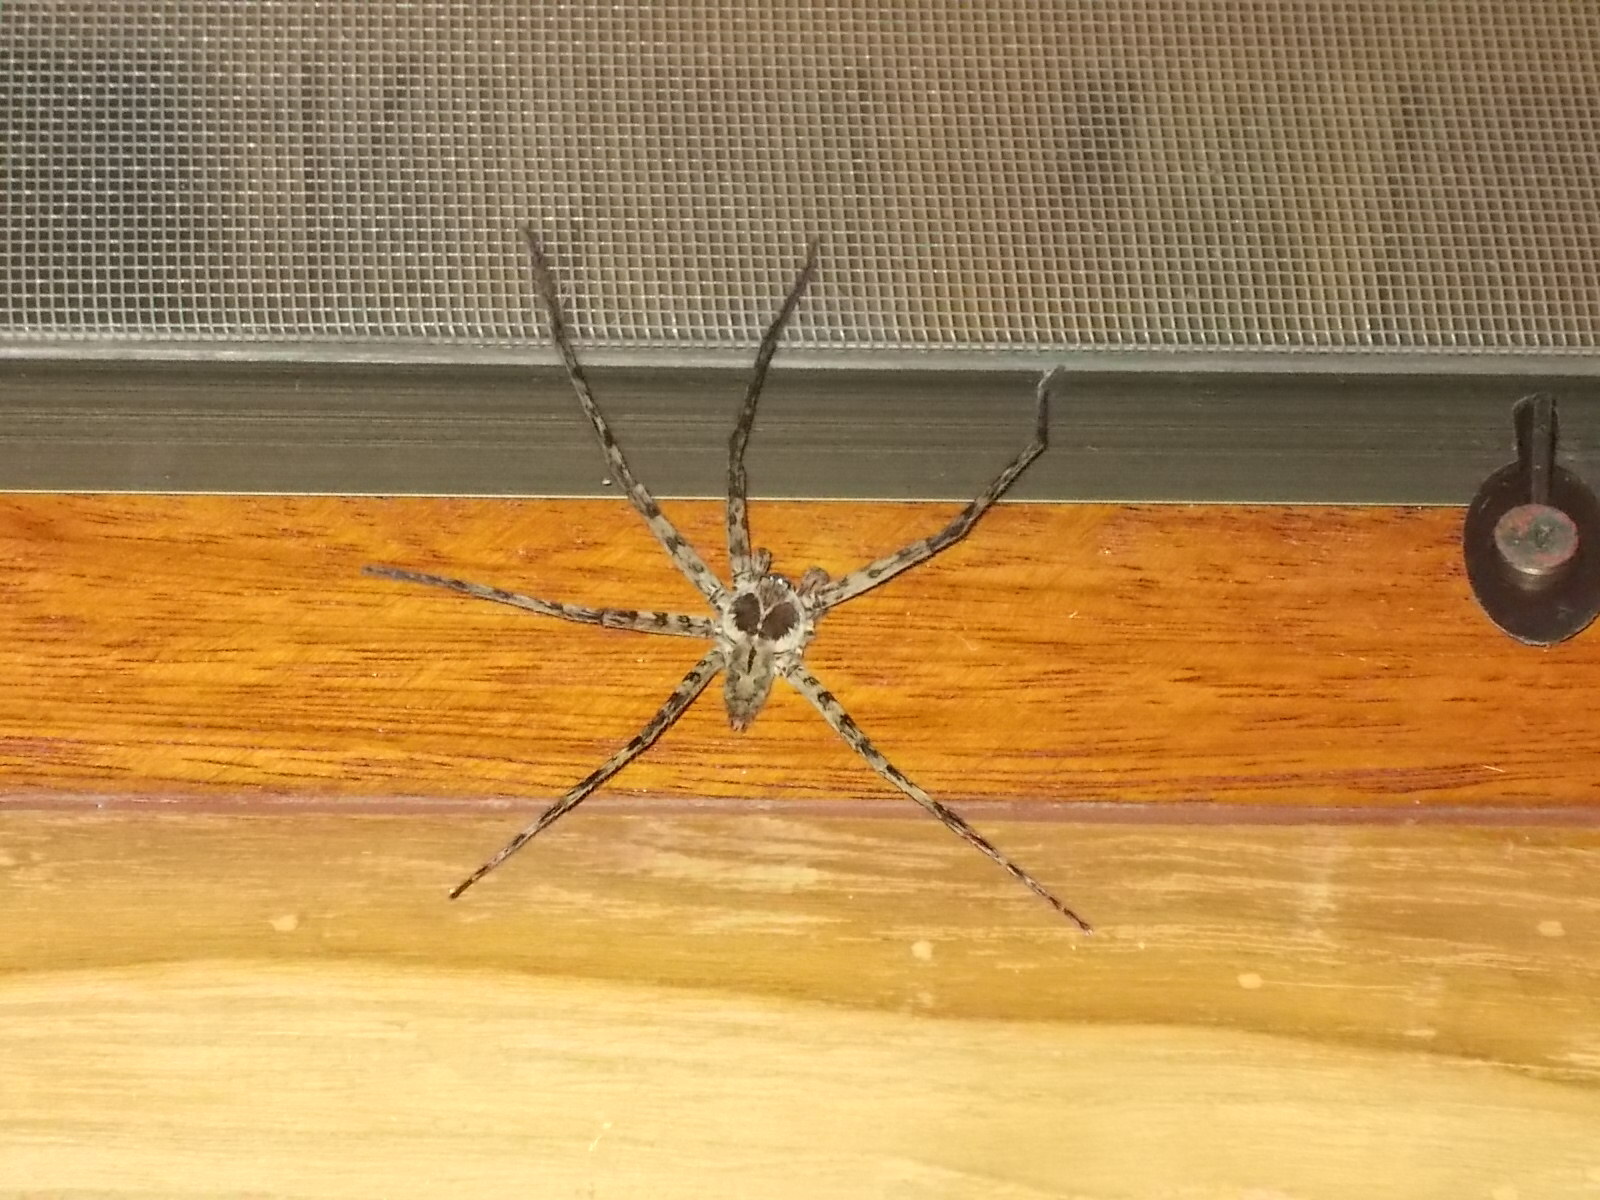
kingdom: Animalia
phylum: Arthropoda
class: Arachnida
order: Araneae
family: Sparassidae
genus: Heteropoda
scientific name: Heteropoda venatoria
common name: Huntsman spider
